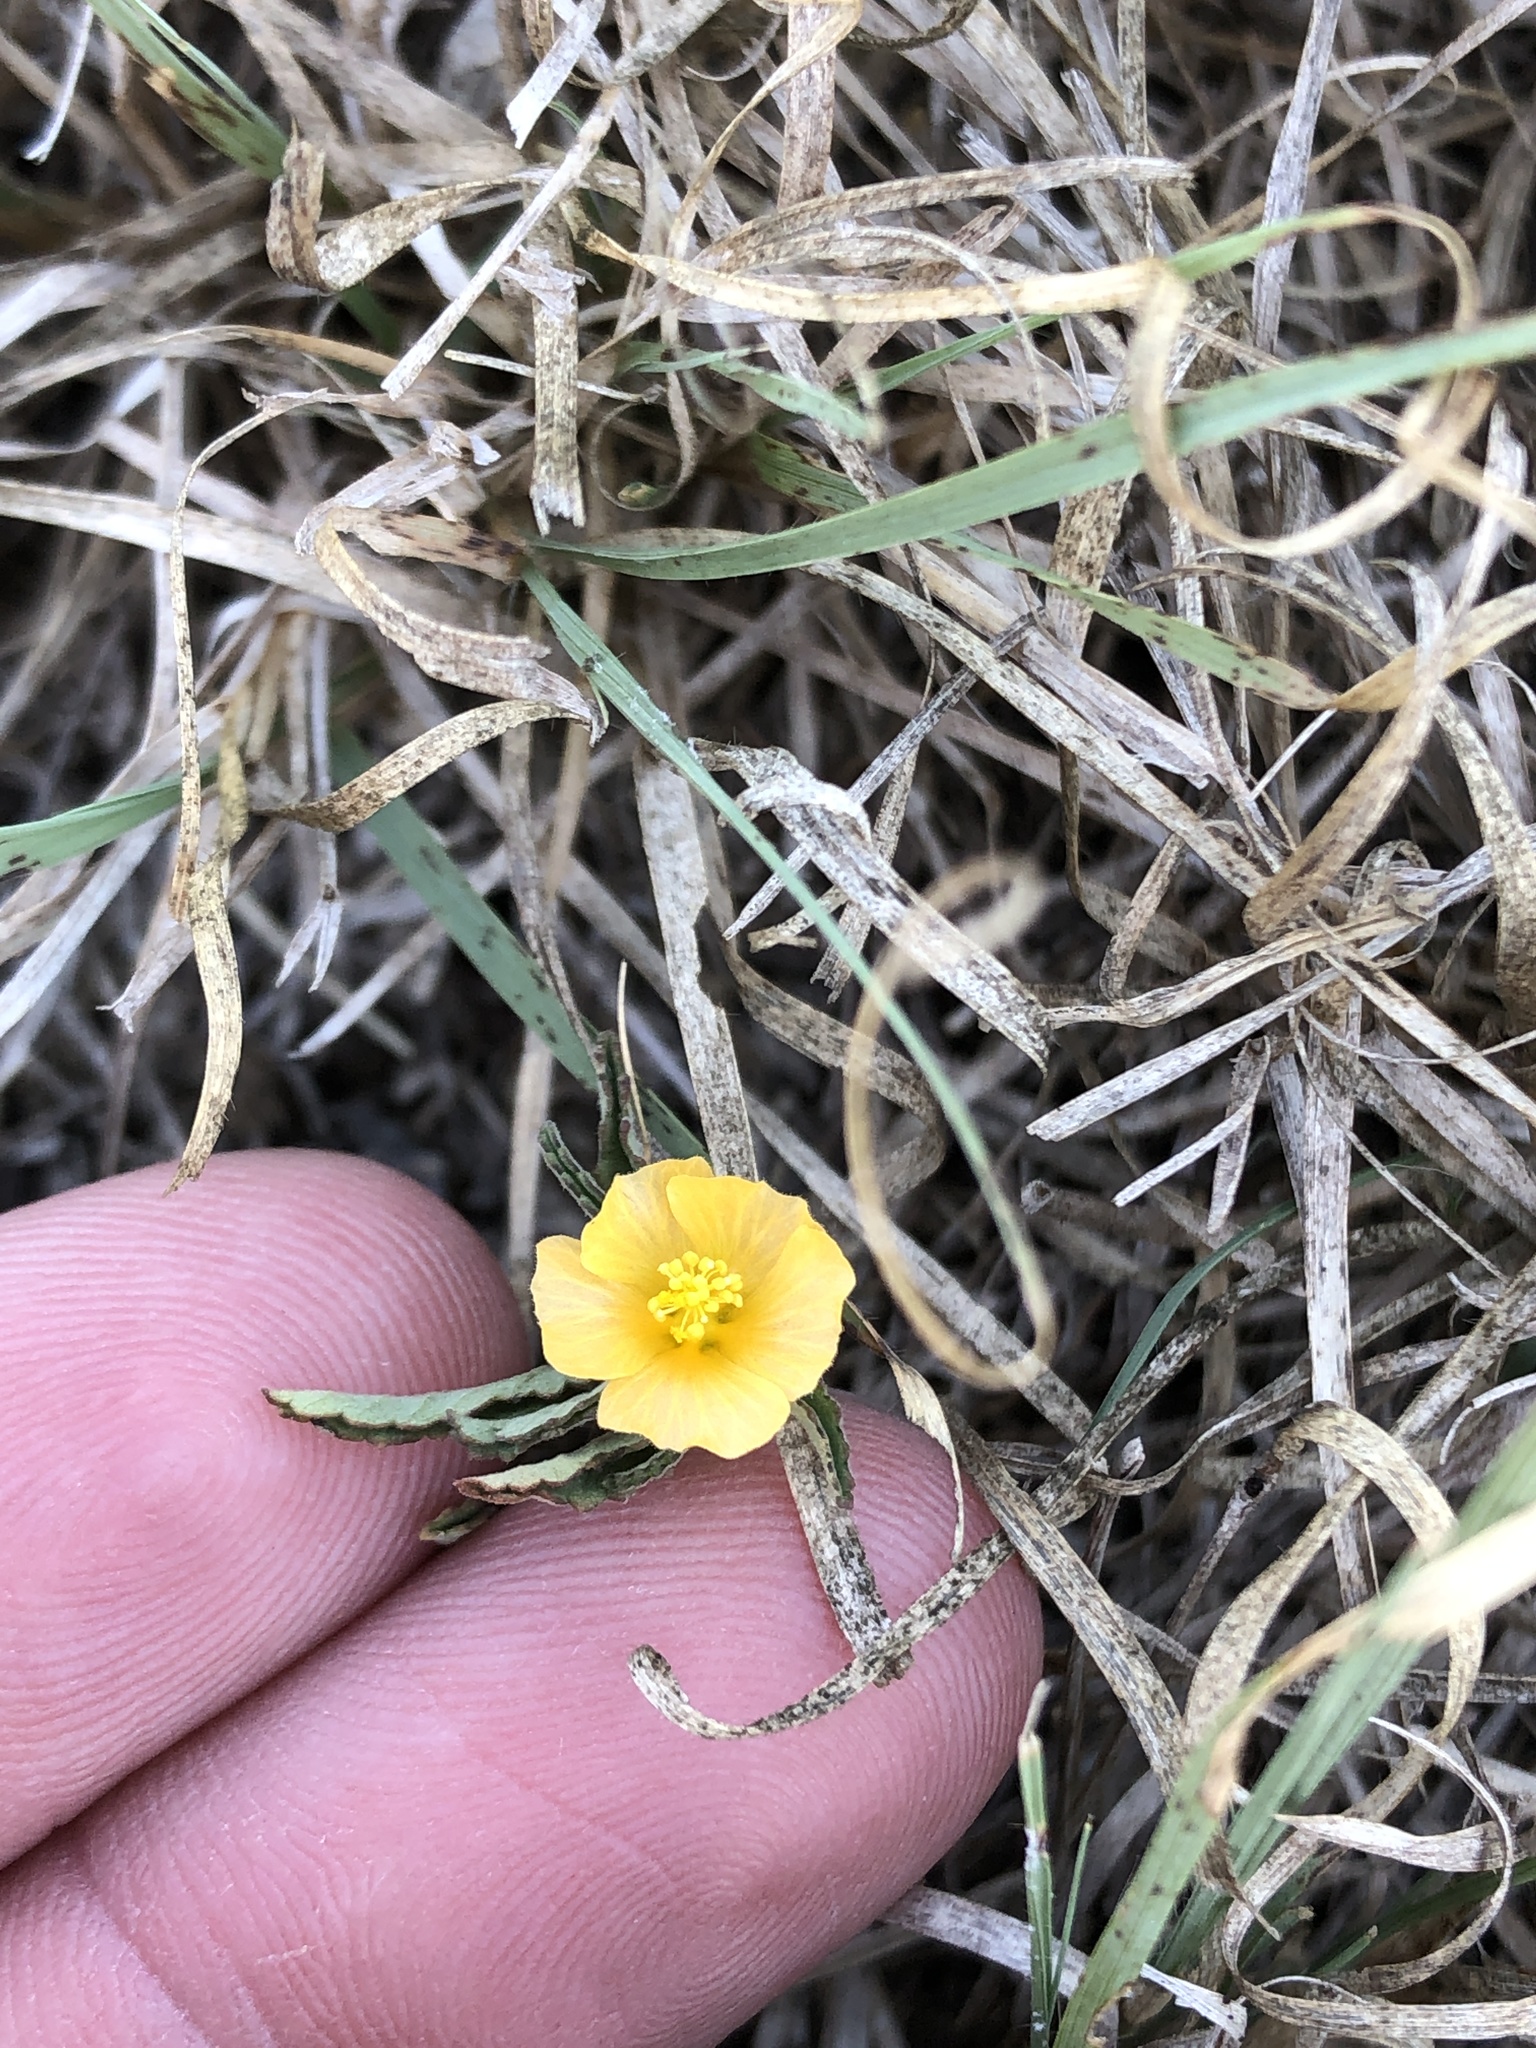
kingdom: Plantae
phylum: Tracheophyta
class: Magnoliopsida
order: Malvales
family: Malvaceae
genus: Sida
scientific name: Sida abutilifolia
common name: Spreading fanpetals
